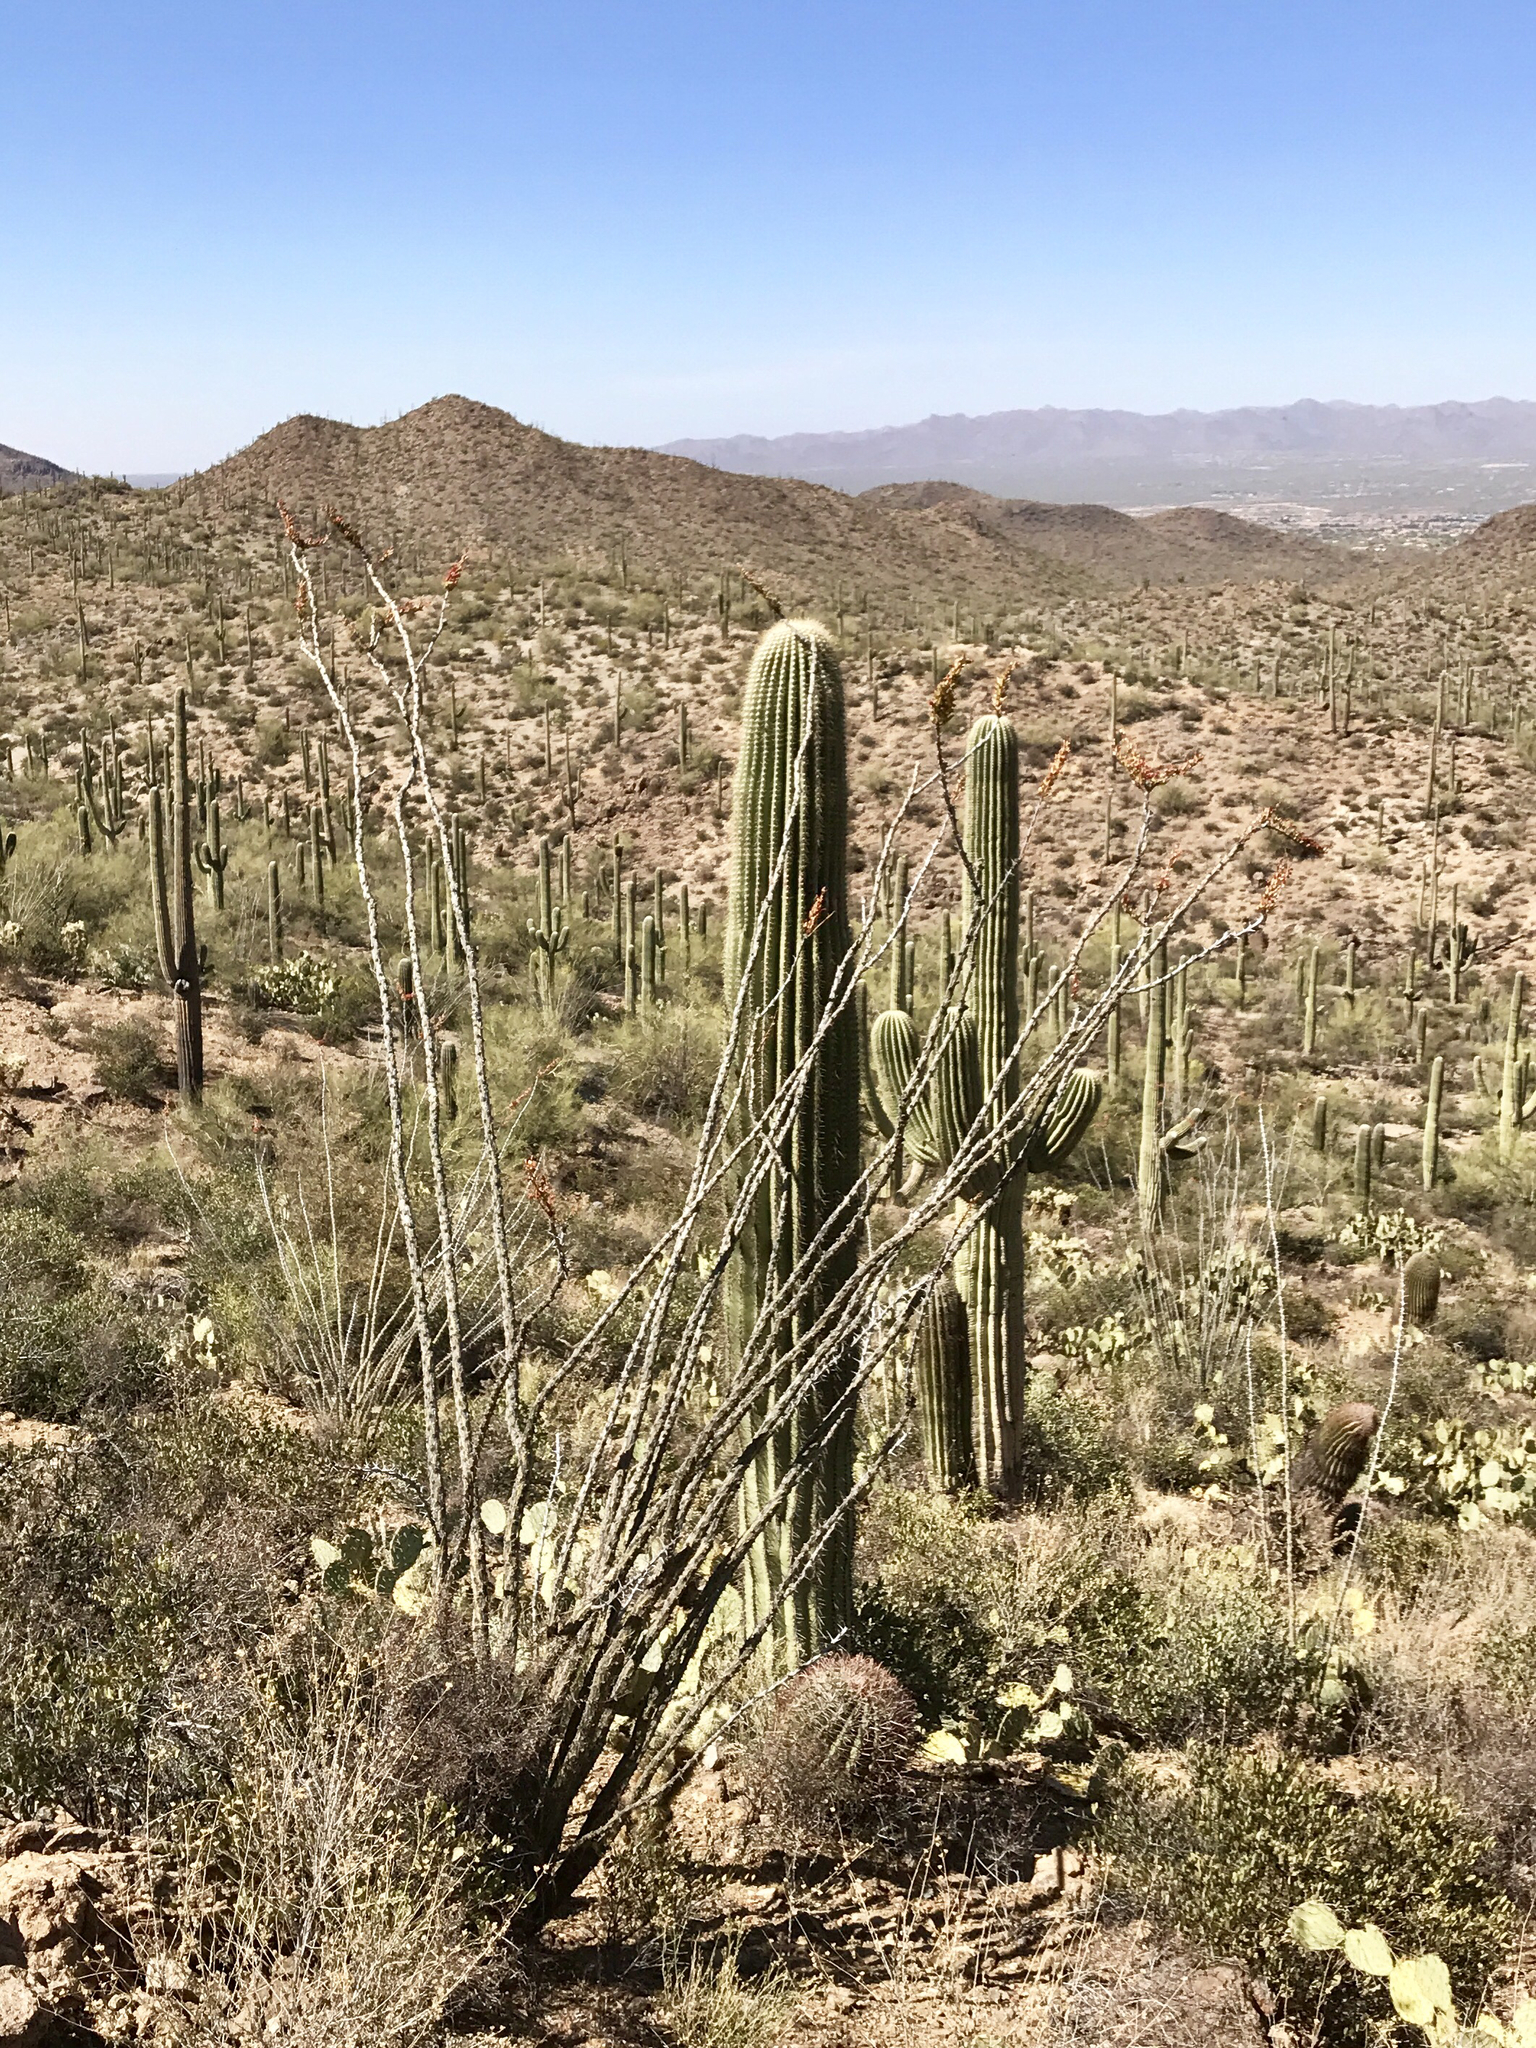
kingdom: Plantae
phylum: Tracheophyta
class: Magnoliopsida
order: Ericales
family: Fouquieriaceae
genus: Fouquieria
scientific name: Fouquieria splendens
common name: Vine-cactus
